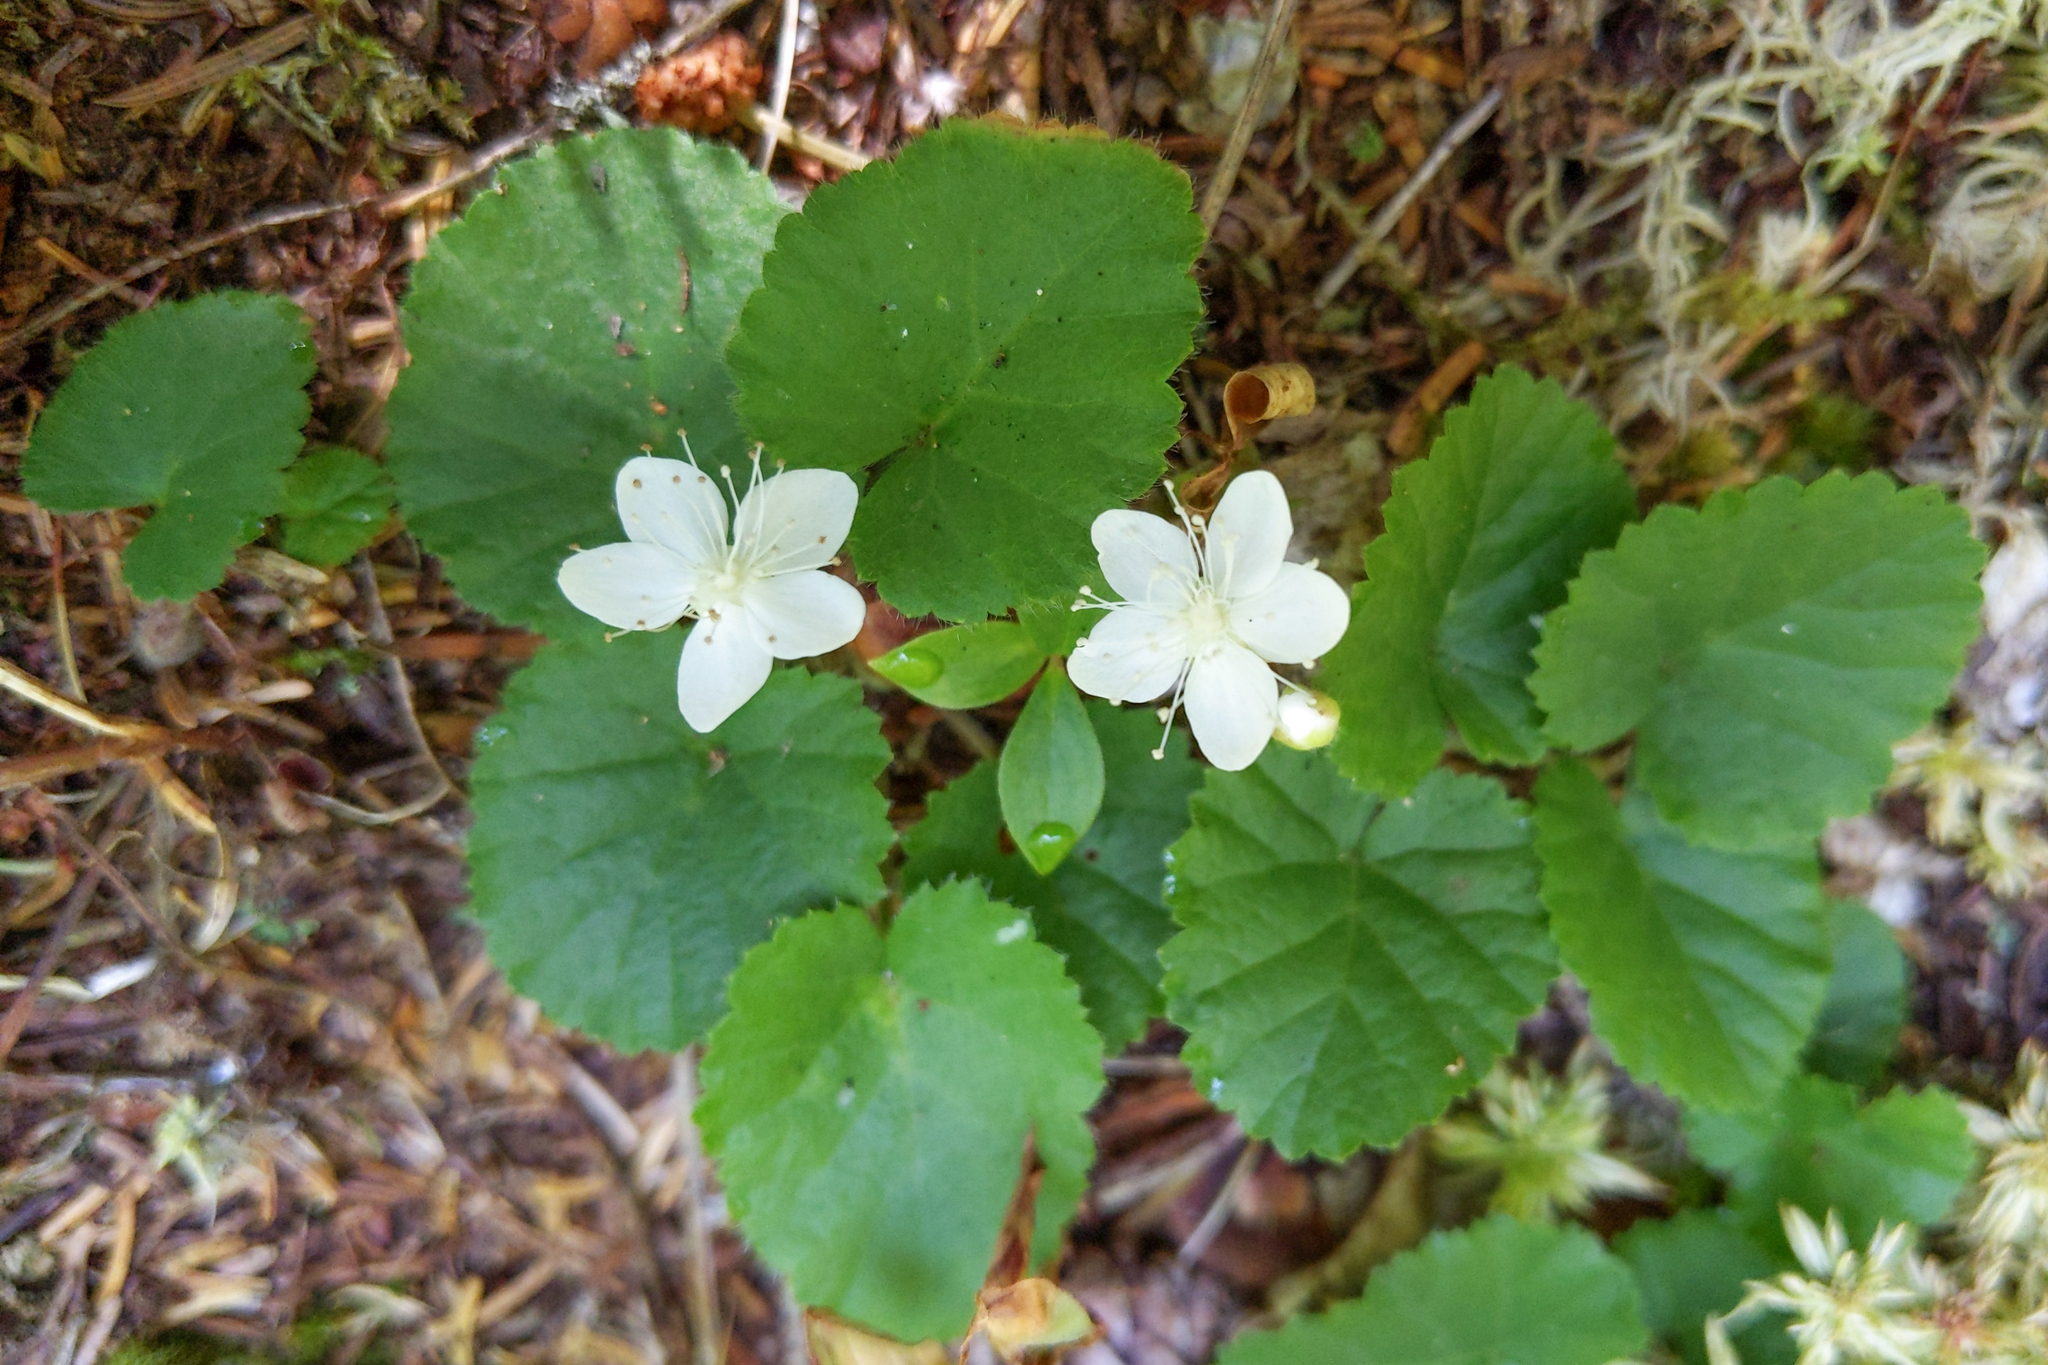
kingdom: Plantae
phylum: Tracheophyta
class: Magnoliopsida
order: Rosales
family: Rosaceae
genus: Dalibarda
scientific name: Dalibarda repens
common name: Dewdrop
